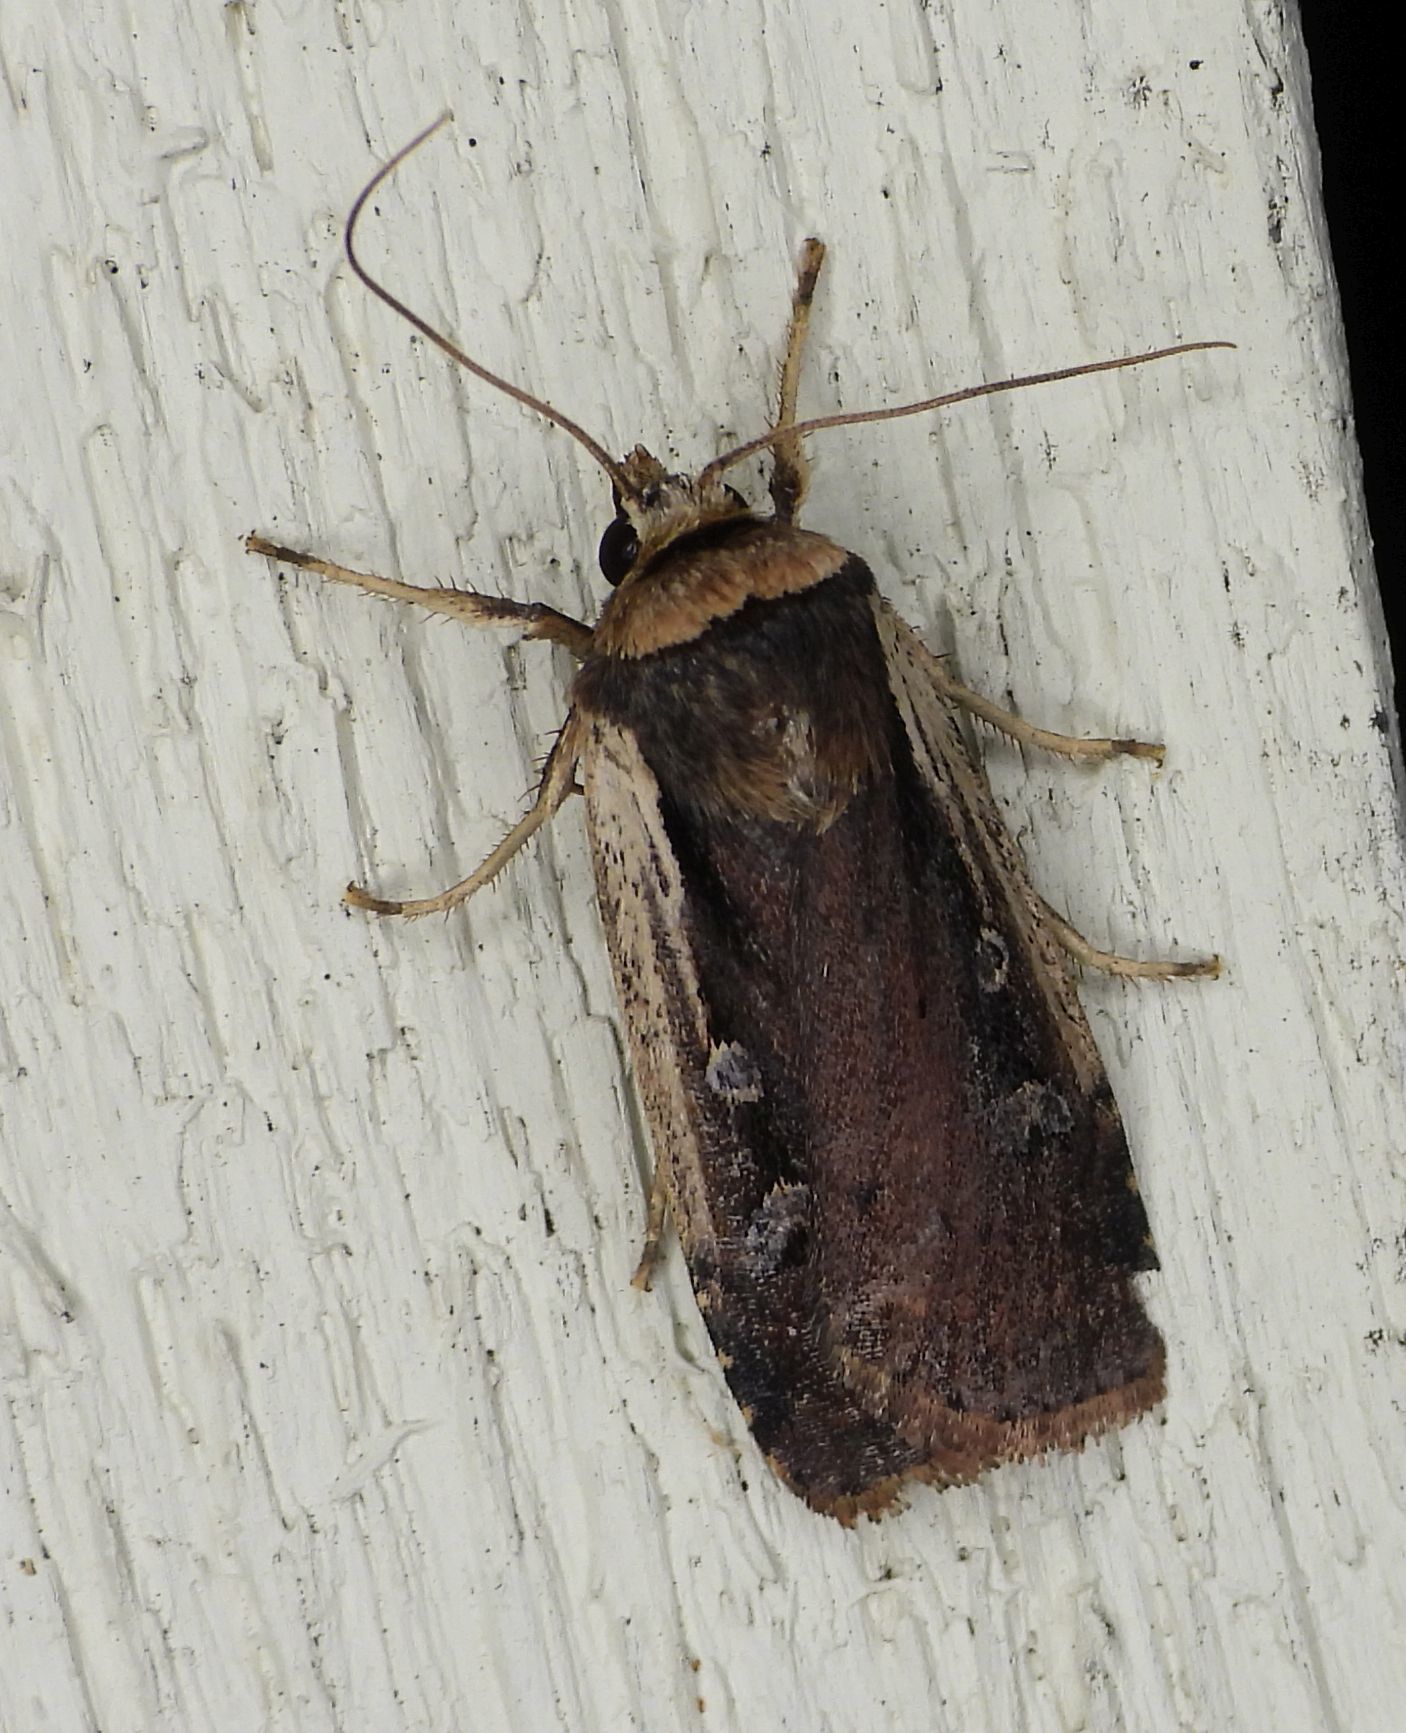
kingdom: Animalia
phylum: Arthropoda
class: Insecta
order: Lepidoptera
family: Noctuidae
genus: Ochropleura
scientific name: Ochropleura implecta
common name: Flame-shouldered dart
